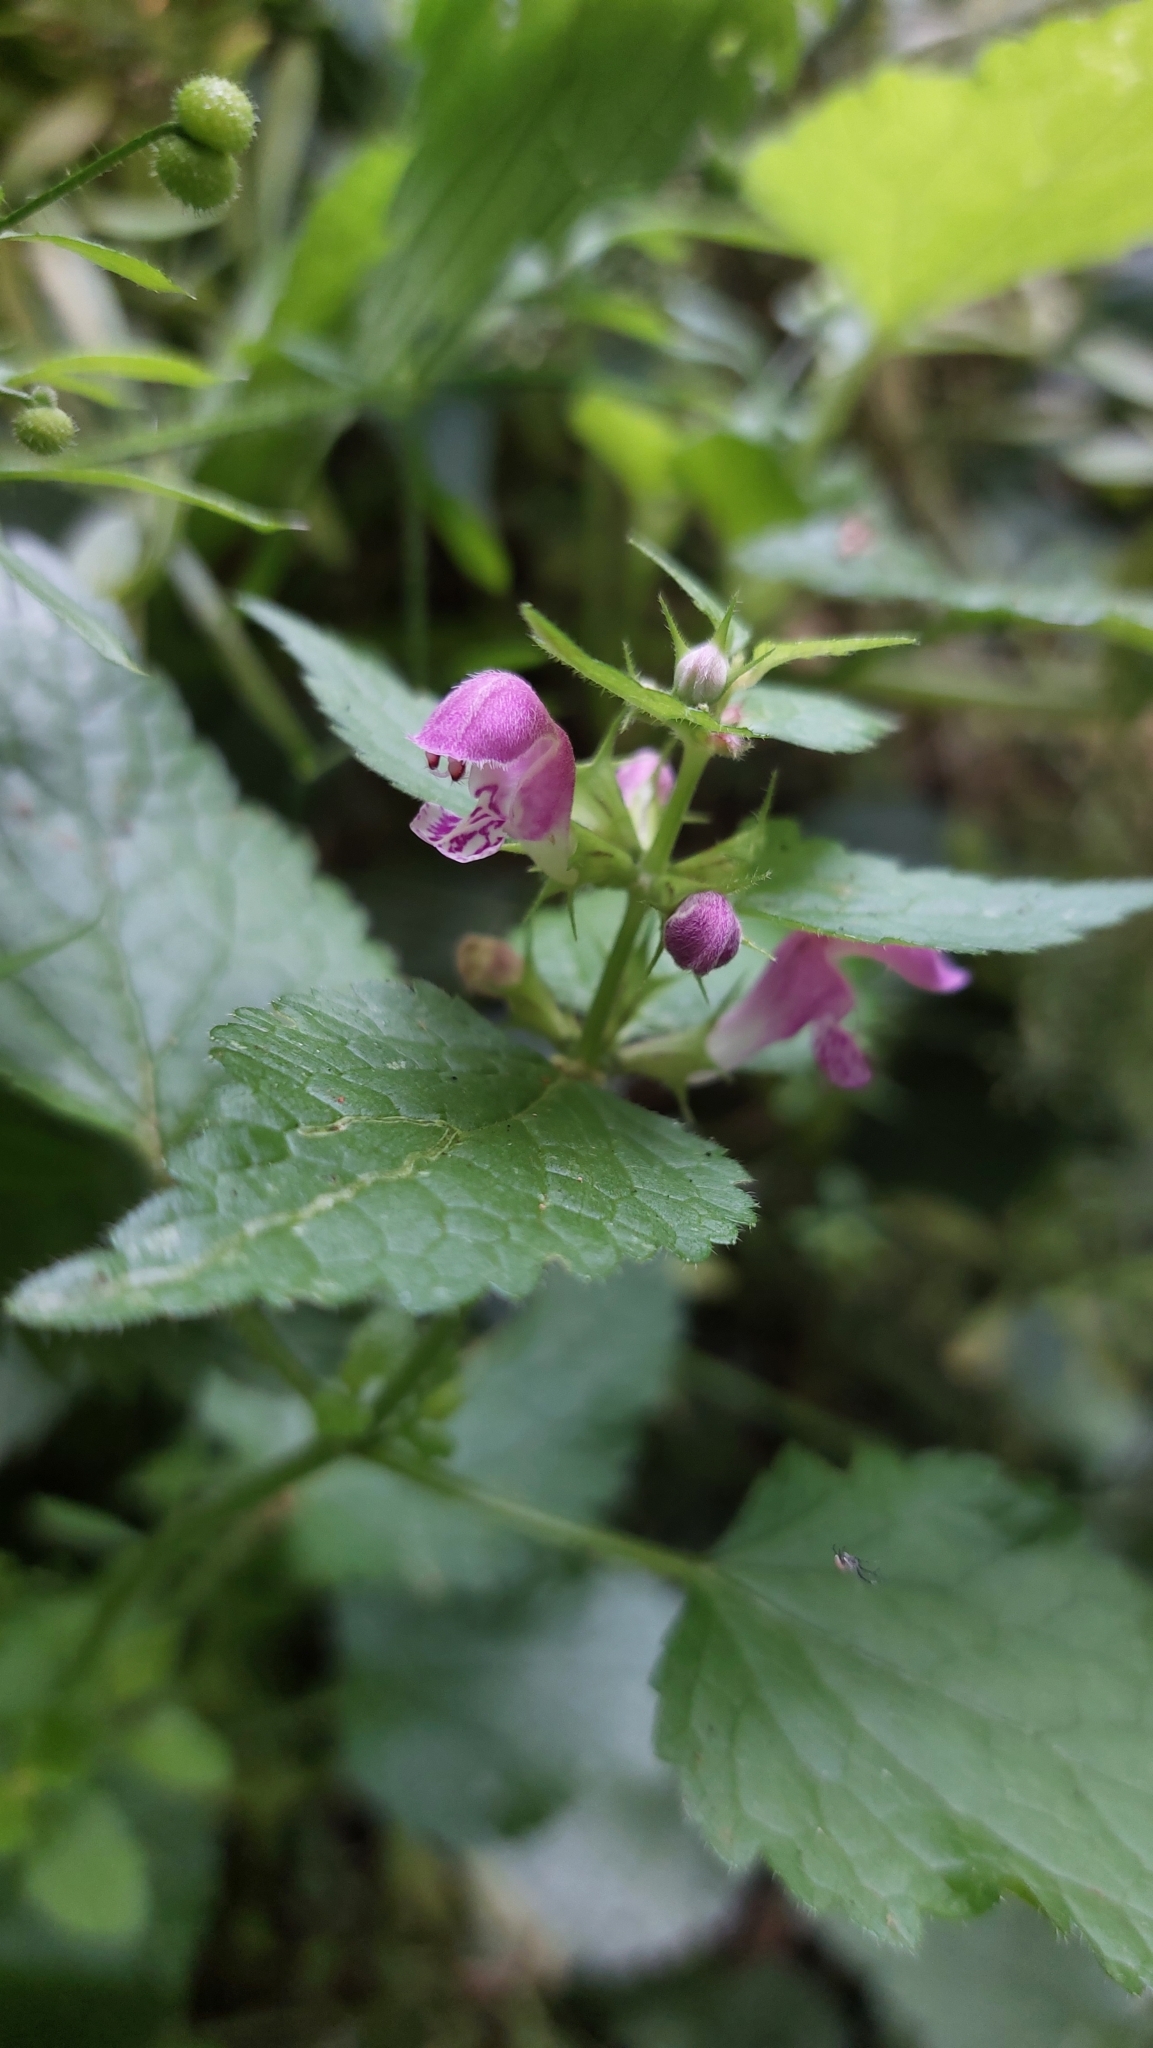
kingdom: Plantae
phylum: Tracheophyta
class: Magnoliopsida
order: Lamiales
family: Lamiaceae
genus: Lamium
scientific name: Lamium maculatum
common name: Spotted dead-nettle
